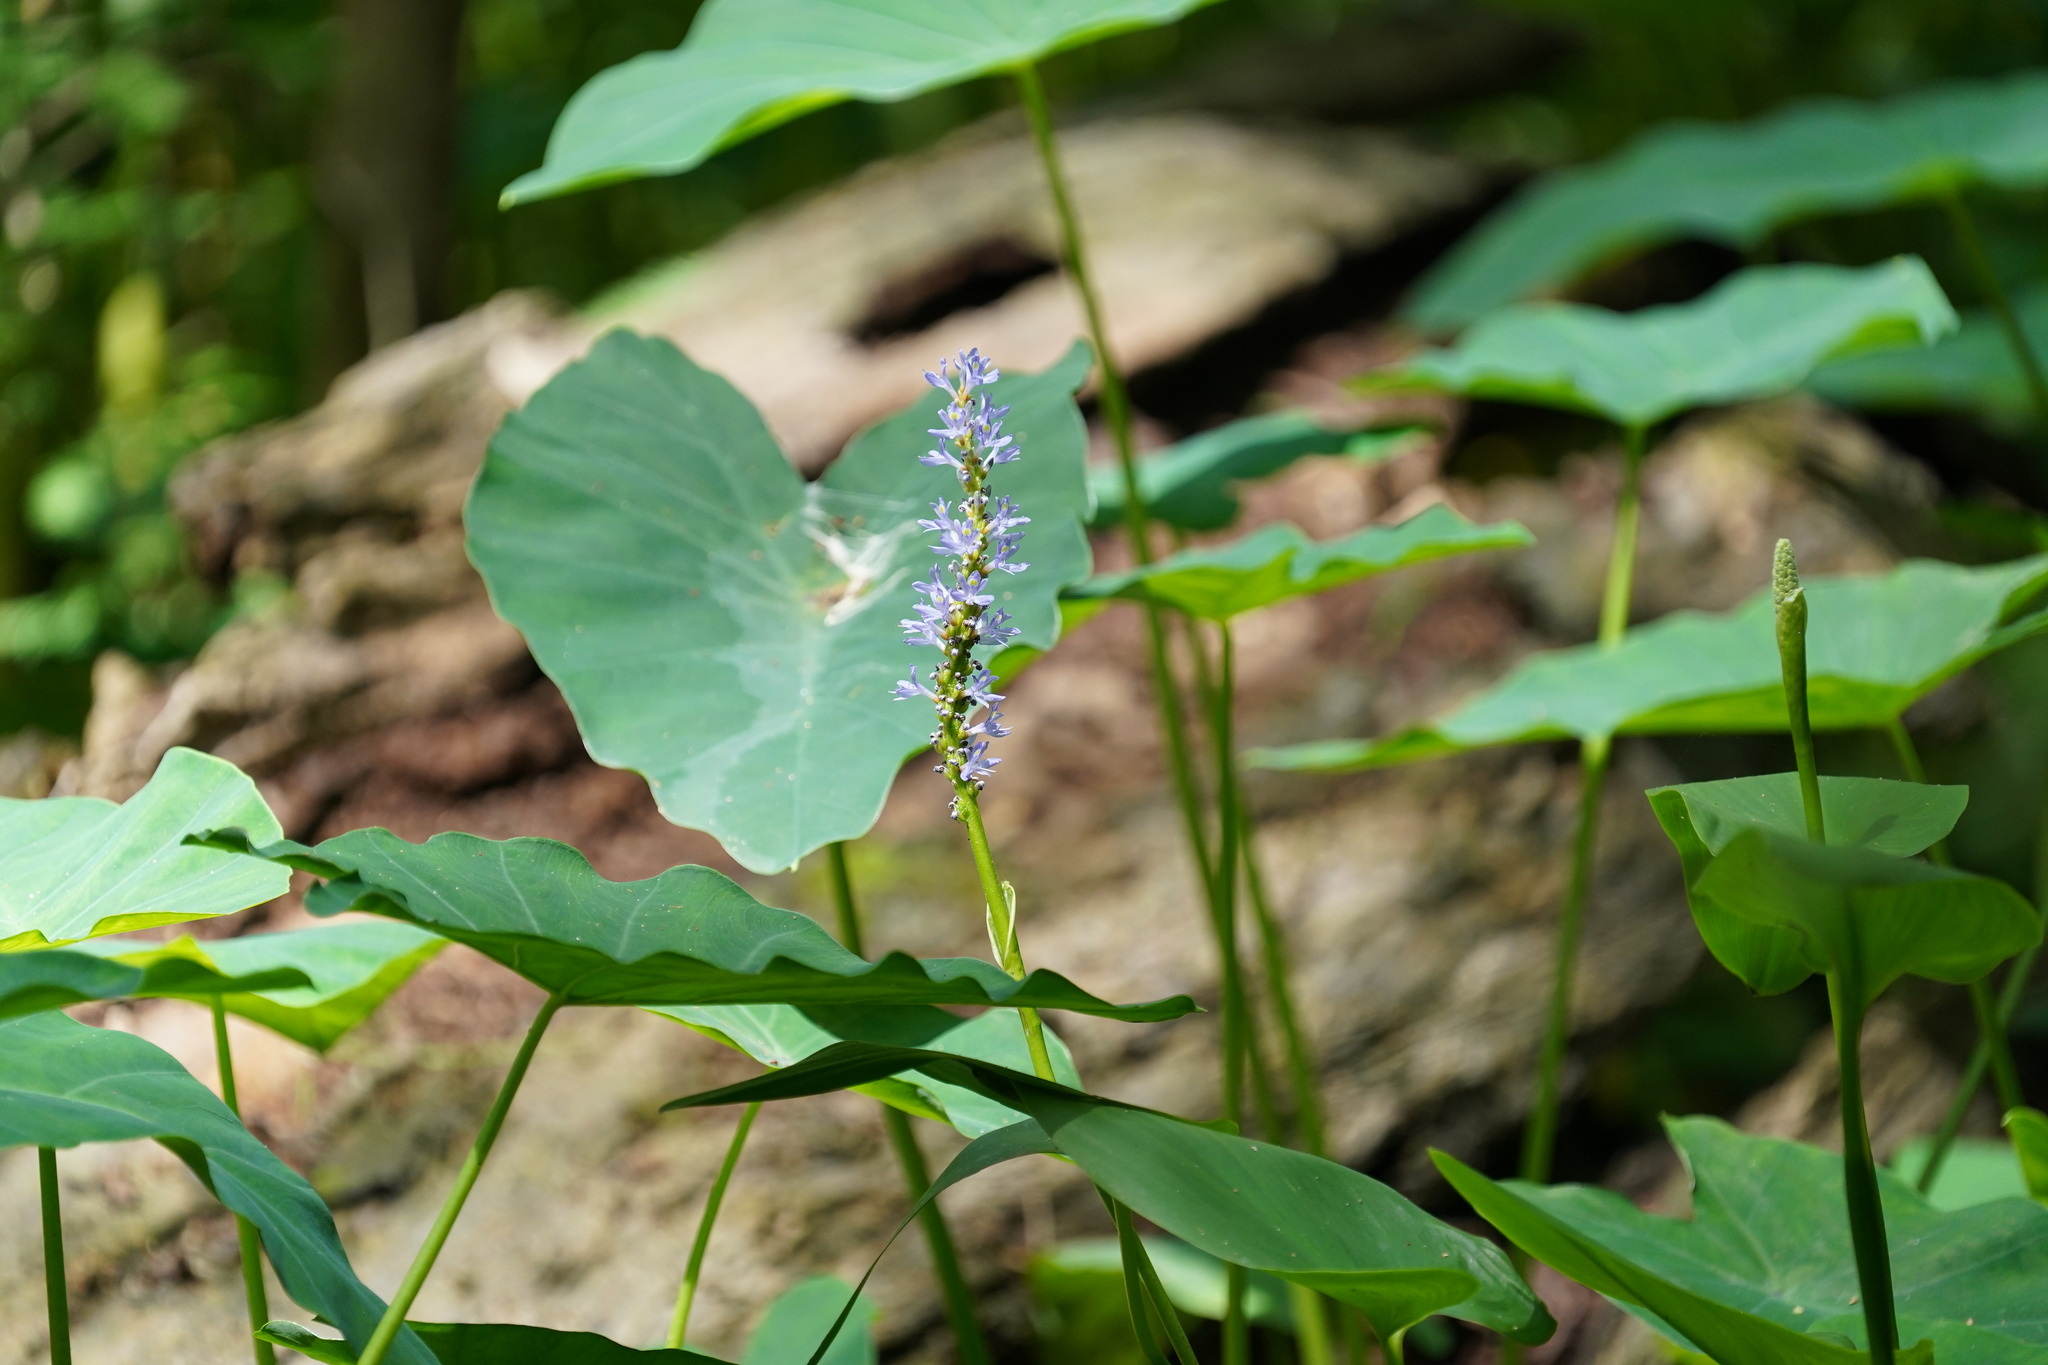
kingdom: Plantae
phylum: Tracheophyta
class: Liliopsida
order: Commelinales
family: Pontederiaceae
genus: Pontederia
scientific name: Pontederia cordata
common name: Pickerelweed
